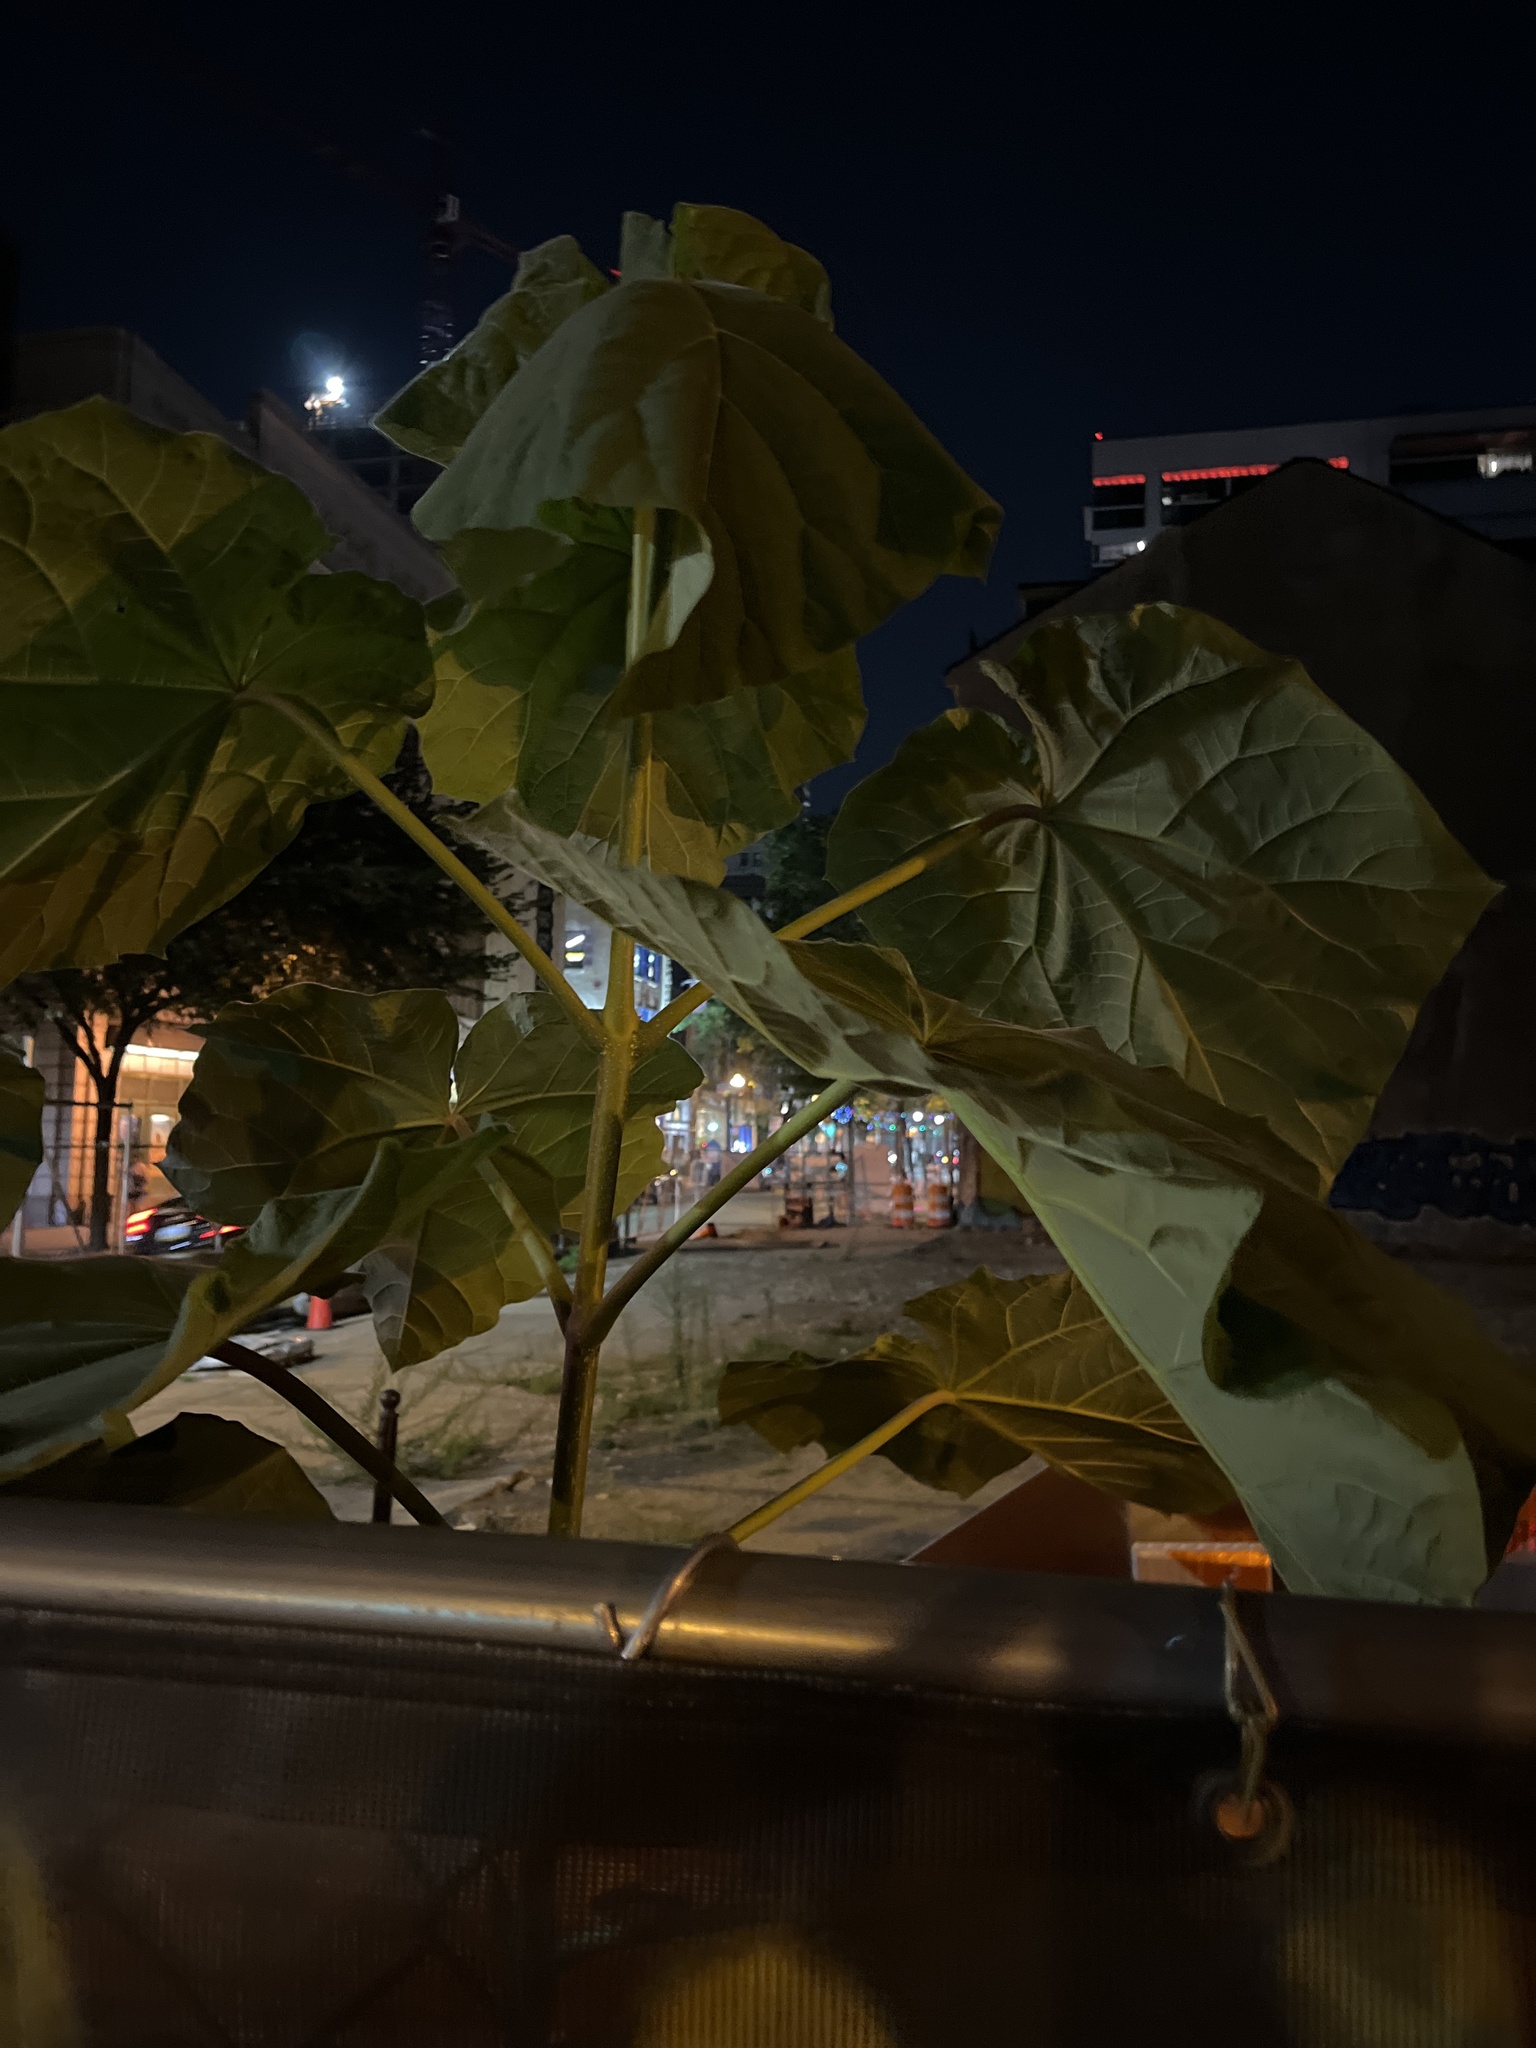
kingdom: Plantae
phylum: Tracheophyta
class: Magnoliopsida
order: Lamiales
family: Paulowniaceae
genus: Paulownia
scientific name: Paulownia tomentosa
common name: Foxglove-tree
